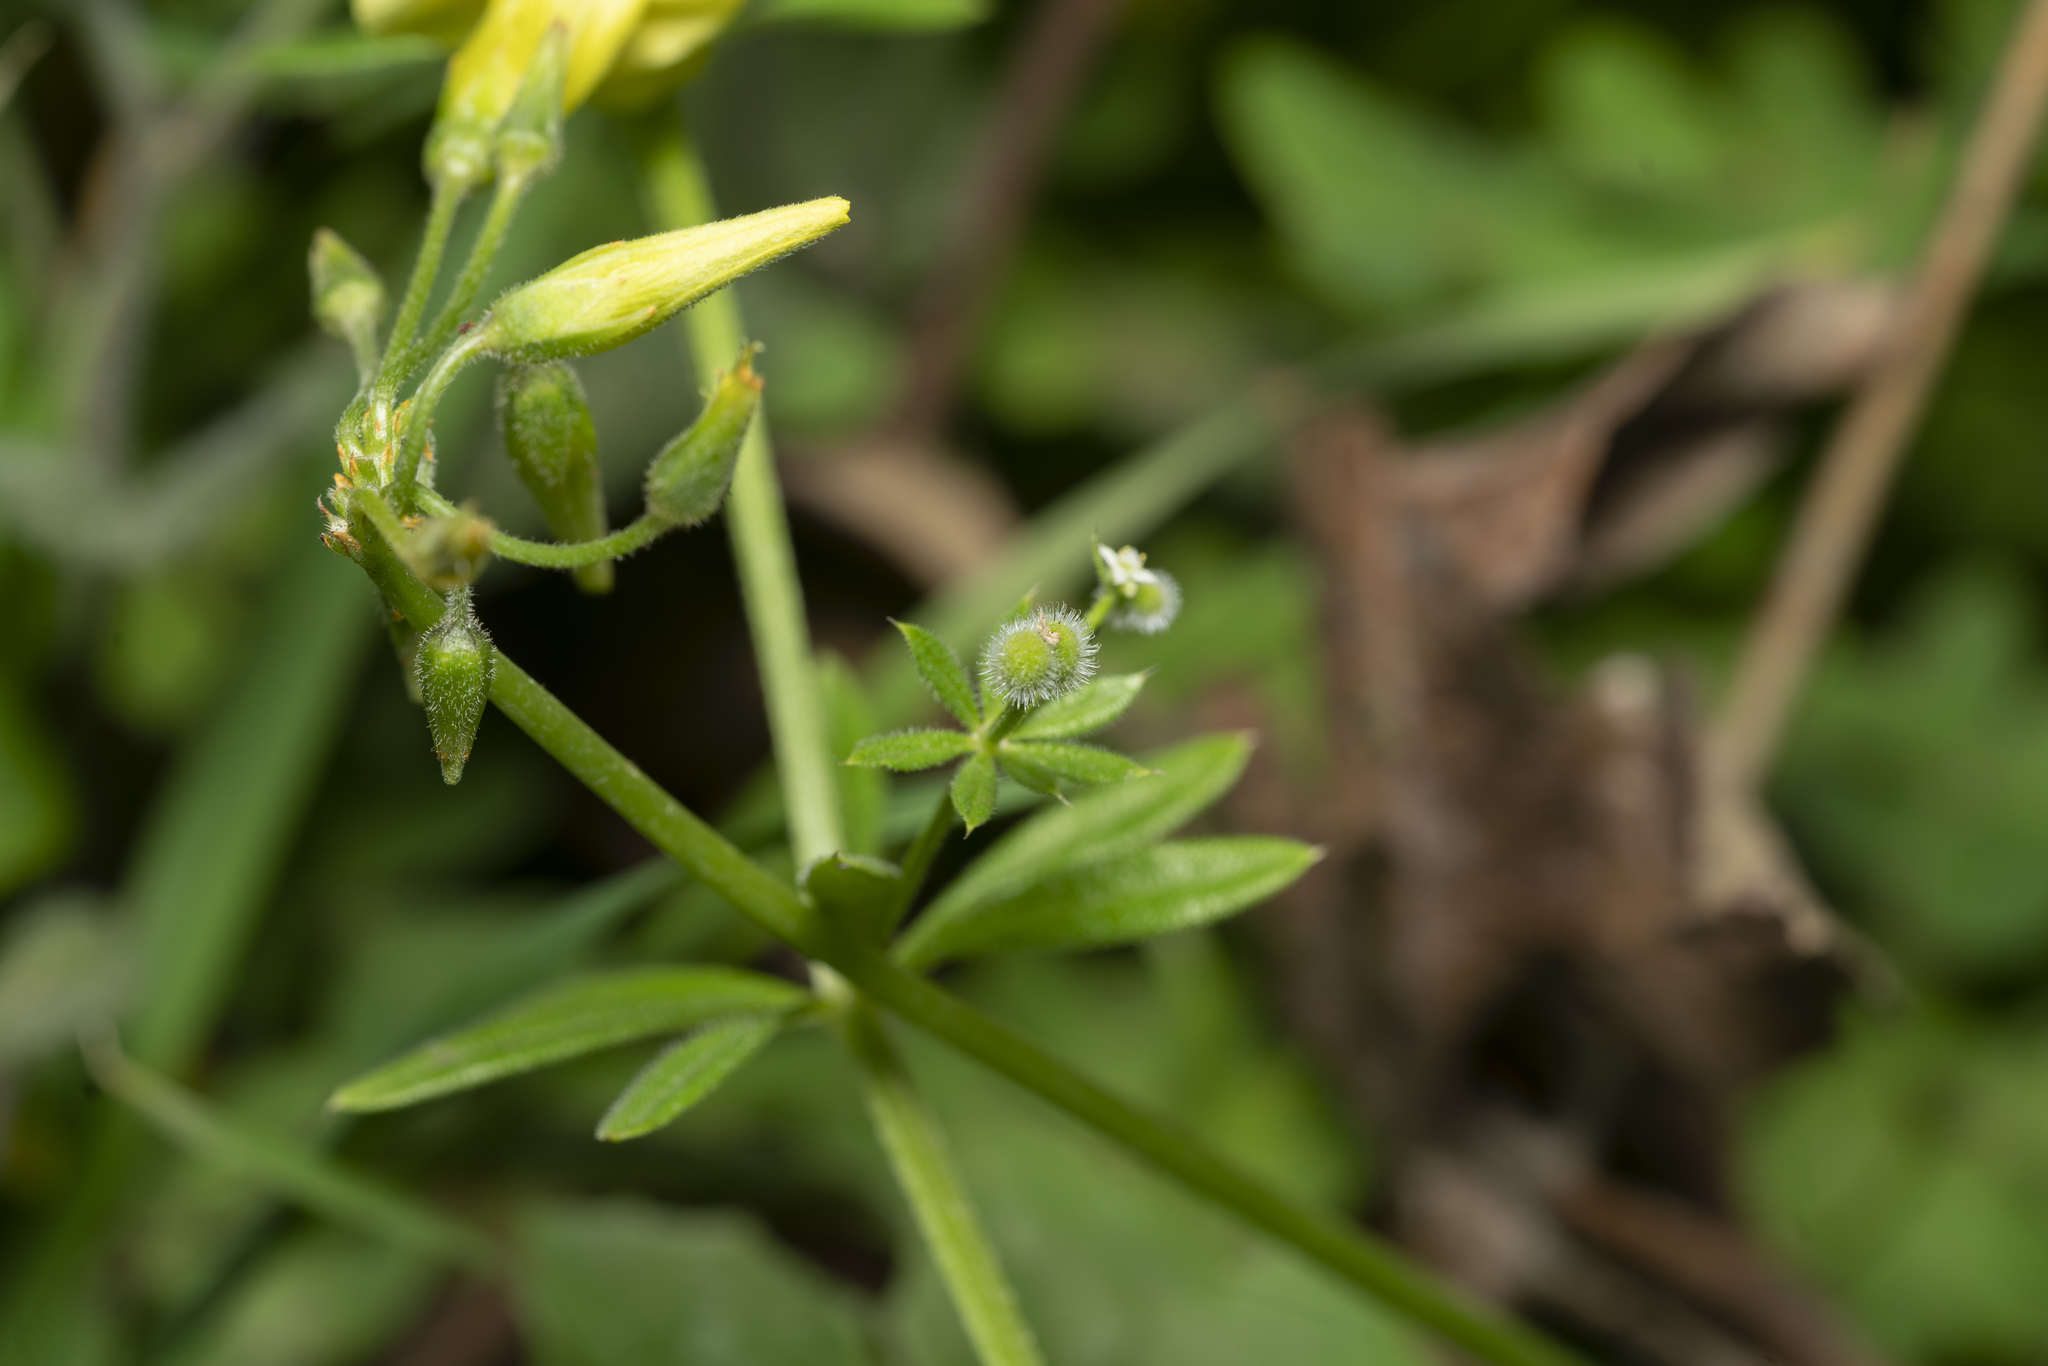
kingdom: Plantae
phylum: Tracheophyta
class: Magnoliopsida
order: Gentianales
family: Rubiaceae
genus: Galium
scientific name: Galium aparine
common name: Cleavers
